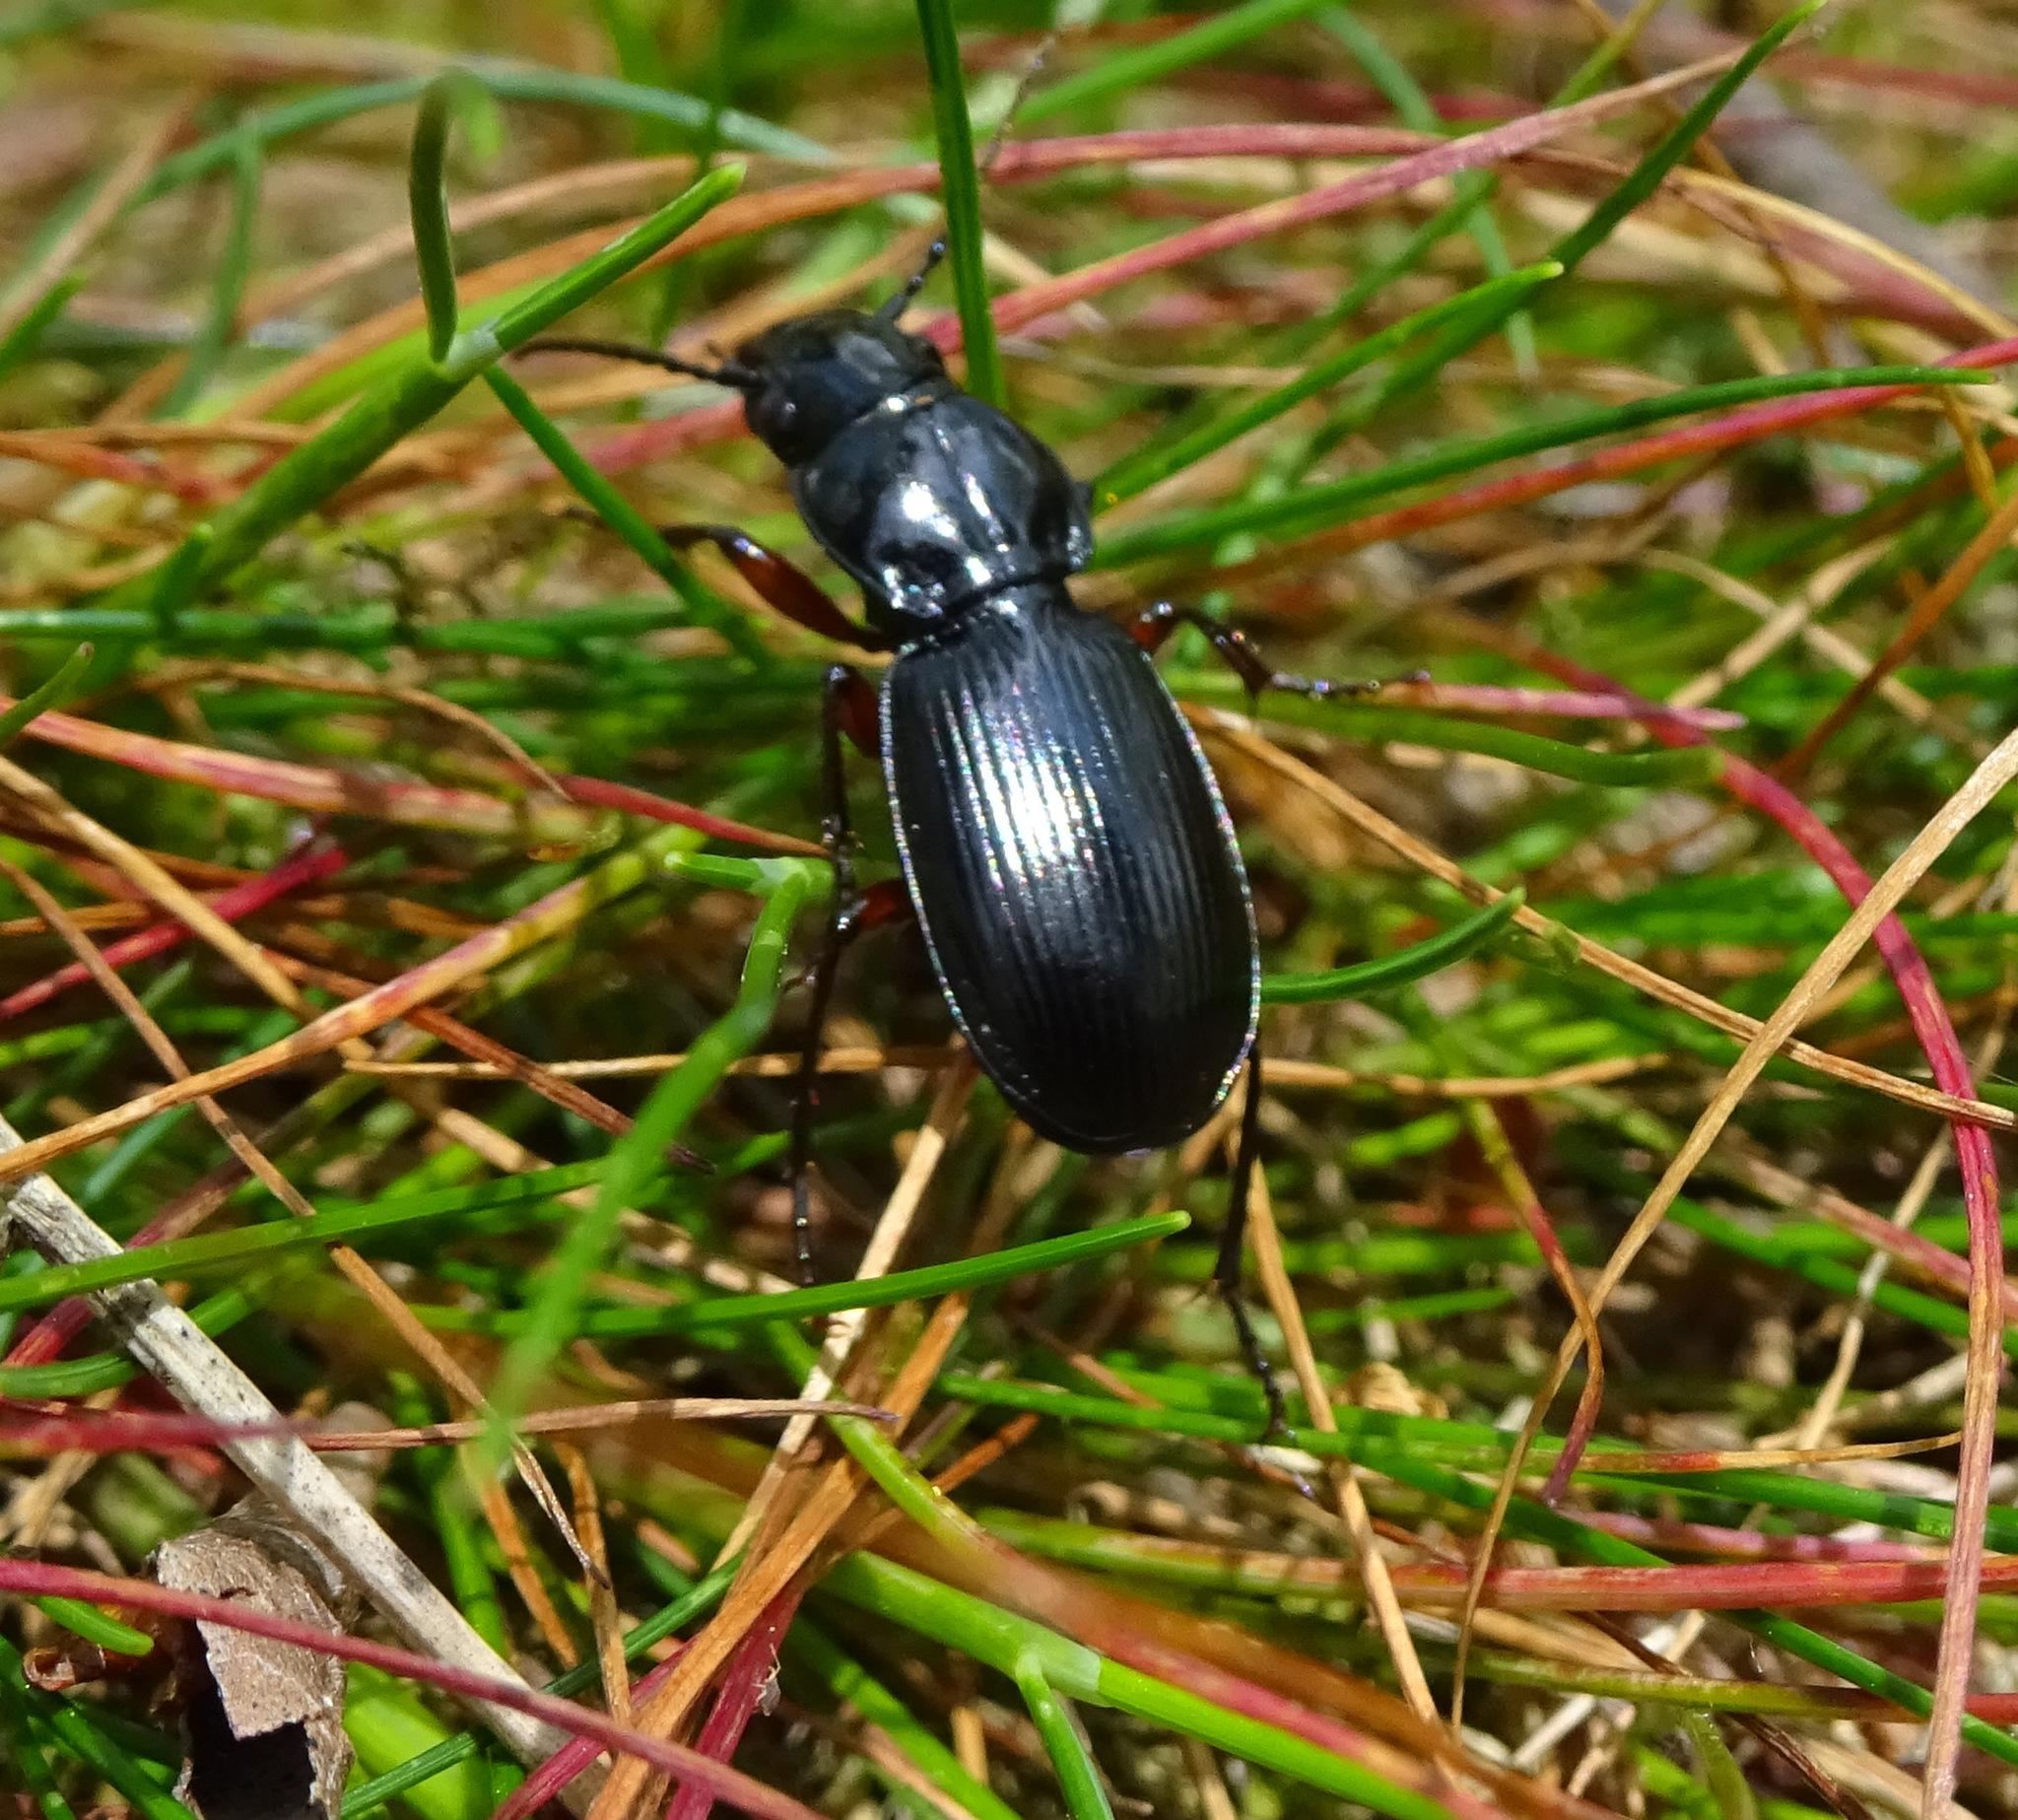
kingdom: Animalia
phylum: Arthropoda
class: Insecta
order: Coleoptera
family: Carabidae
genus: Pterostichus
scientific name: Pterostichus madidus
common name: Black clock
